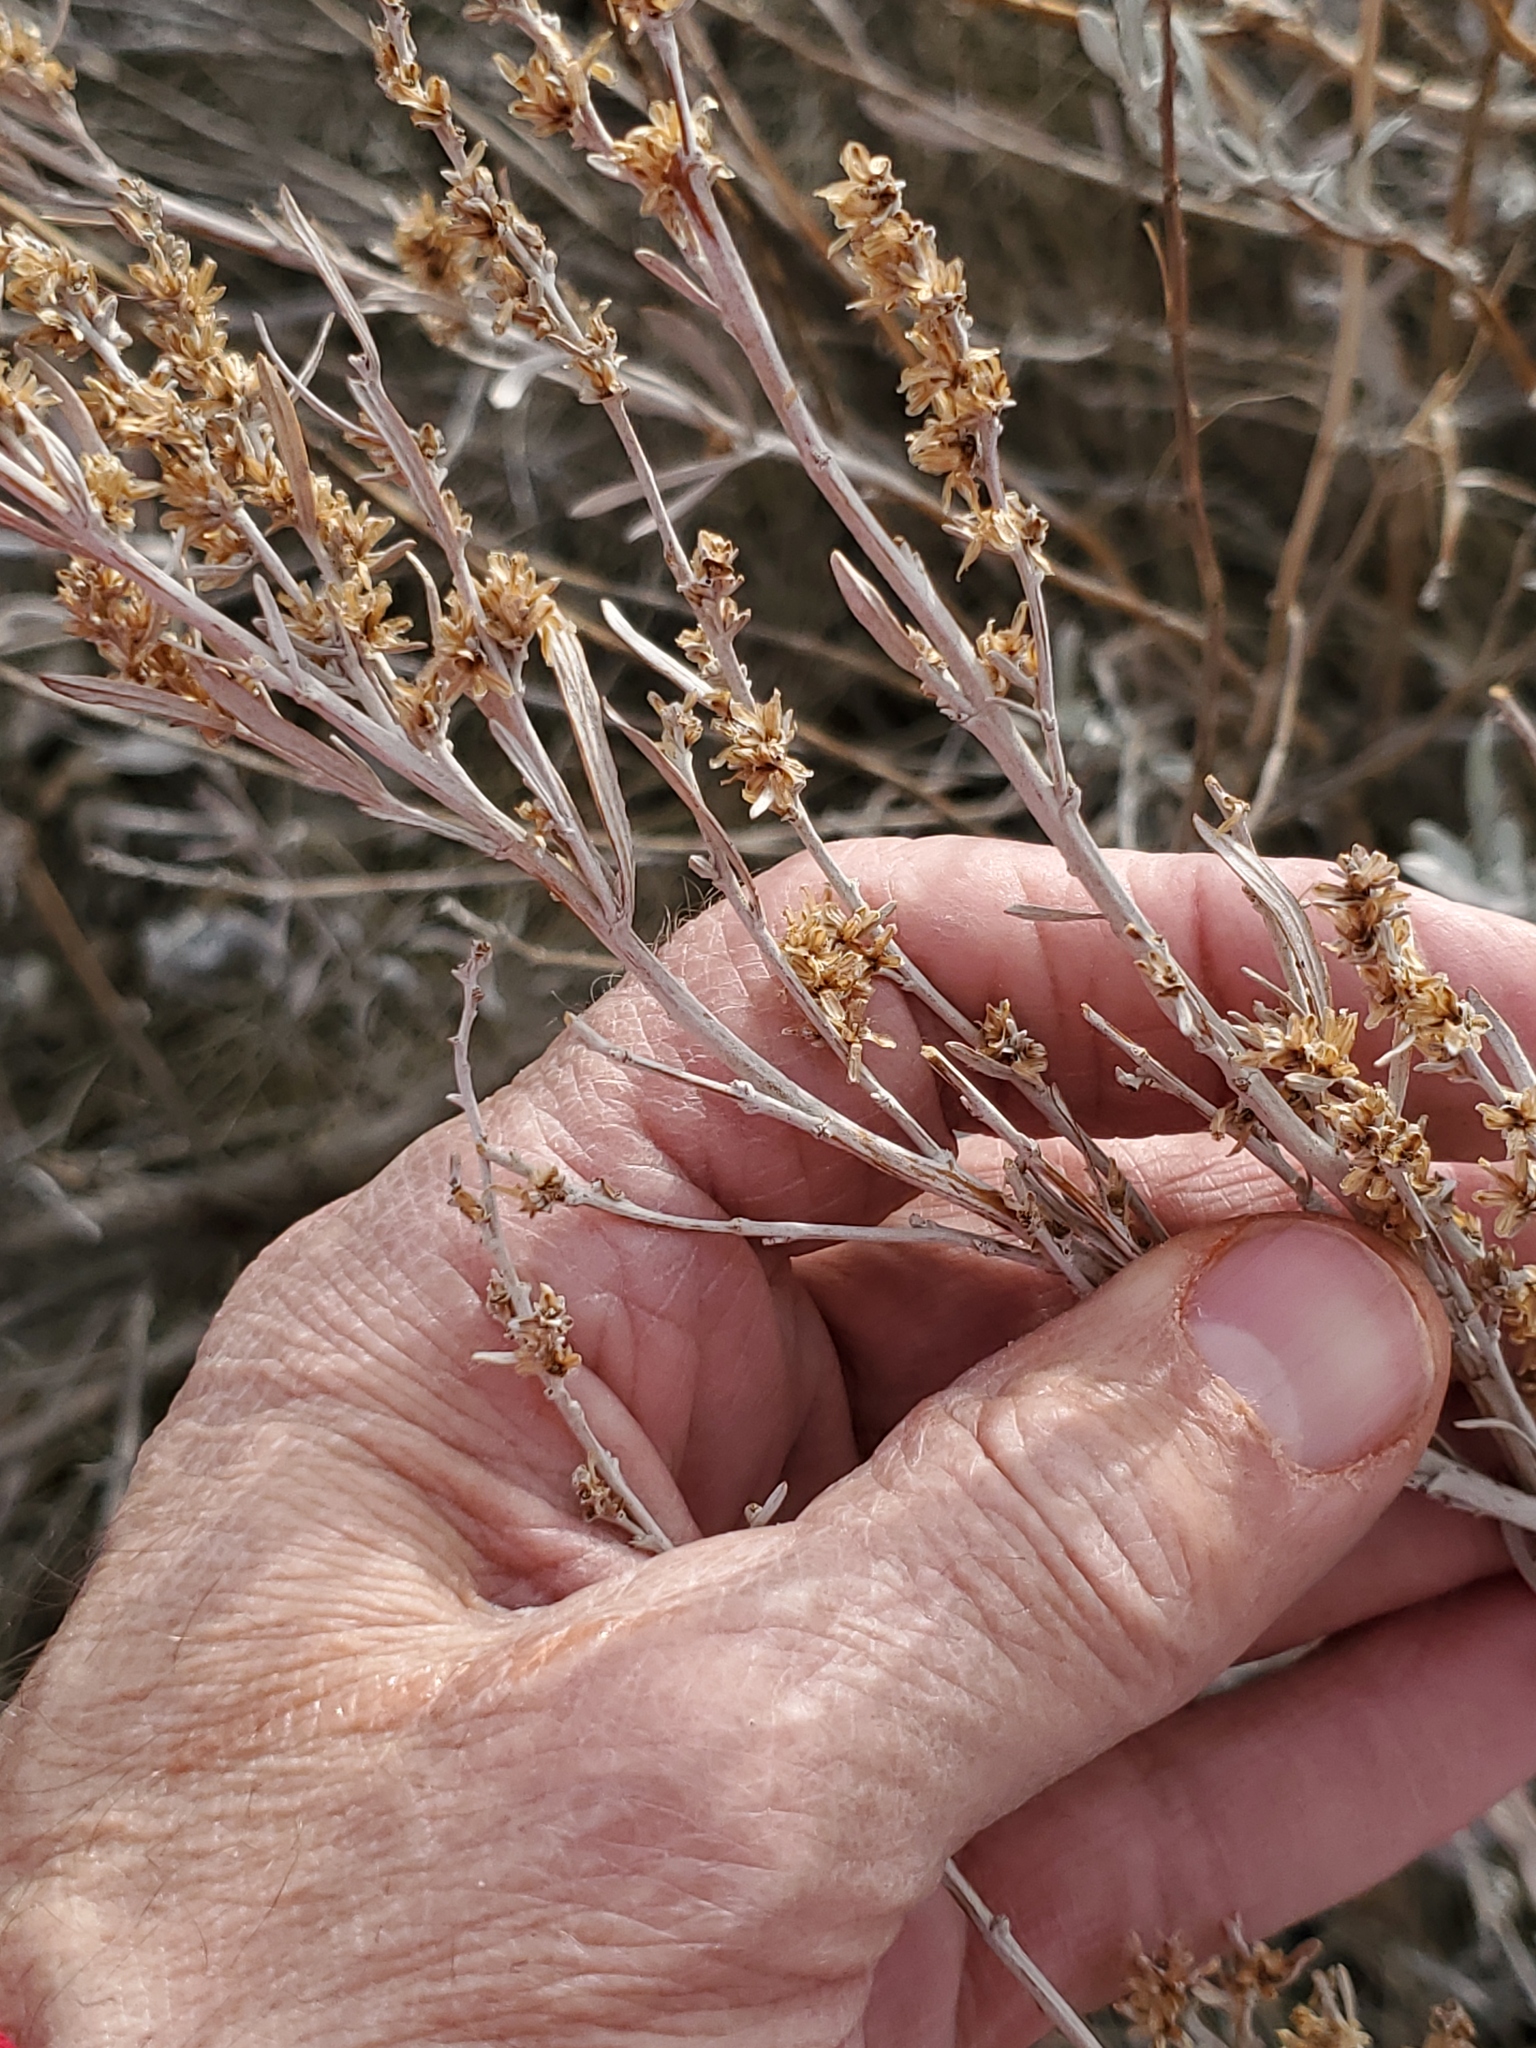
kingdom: Plantae
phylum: Tracheophyta
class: Magnoliopsida
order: Asterales
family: Asteraceae
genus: Artemisia
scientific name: Artemisia cana
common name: Silver sagebrush
